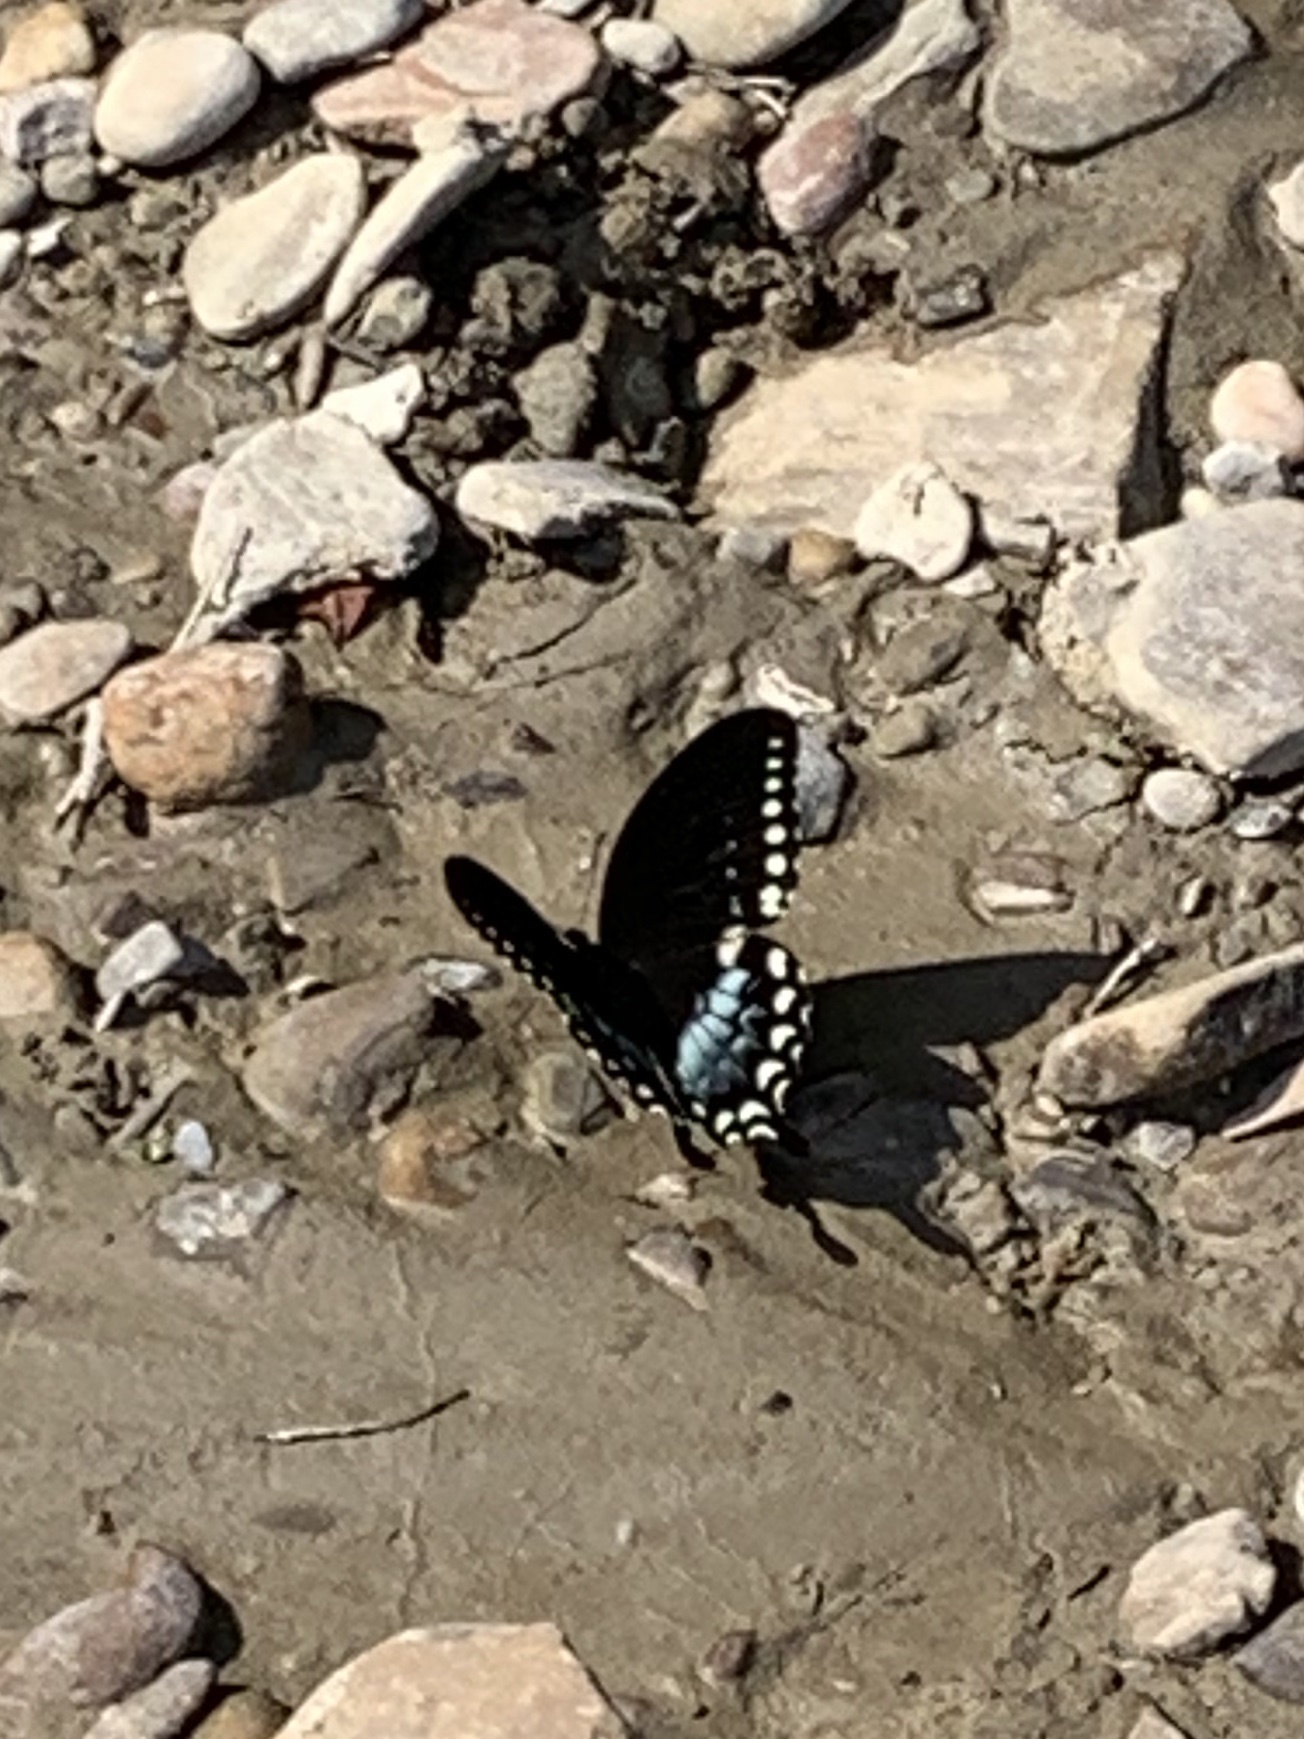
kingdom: Animalia
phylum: Arthropoda
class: Insecta
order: Lepidoptera
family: Papilionidae
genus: Papilio
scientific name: Papilio troilus
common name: Spicebush swallowtail
